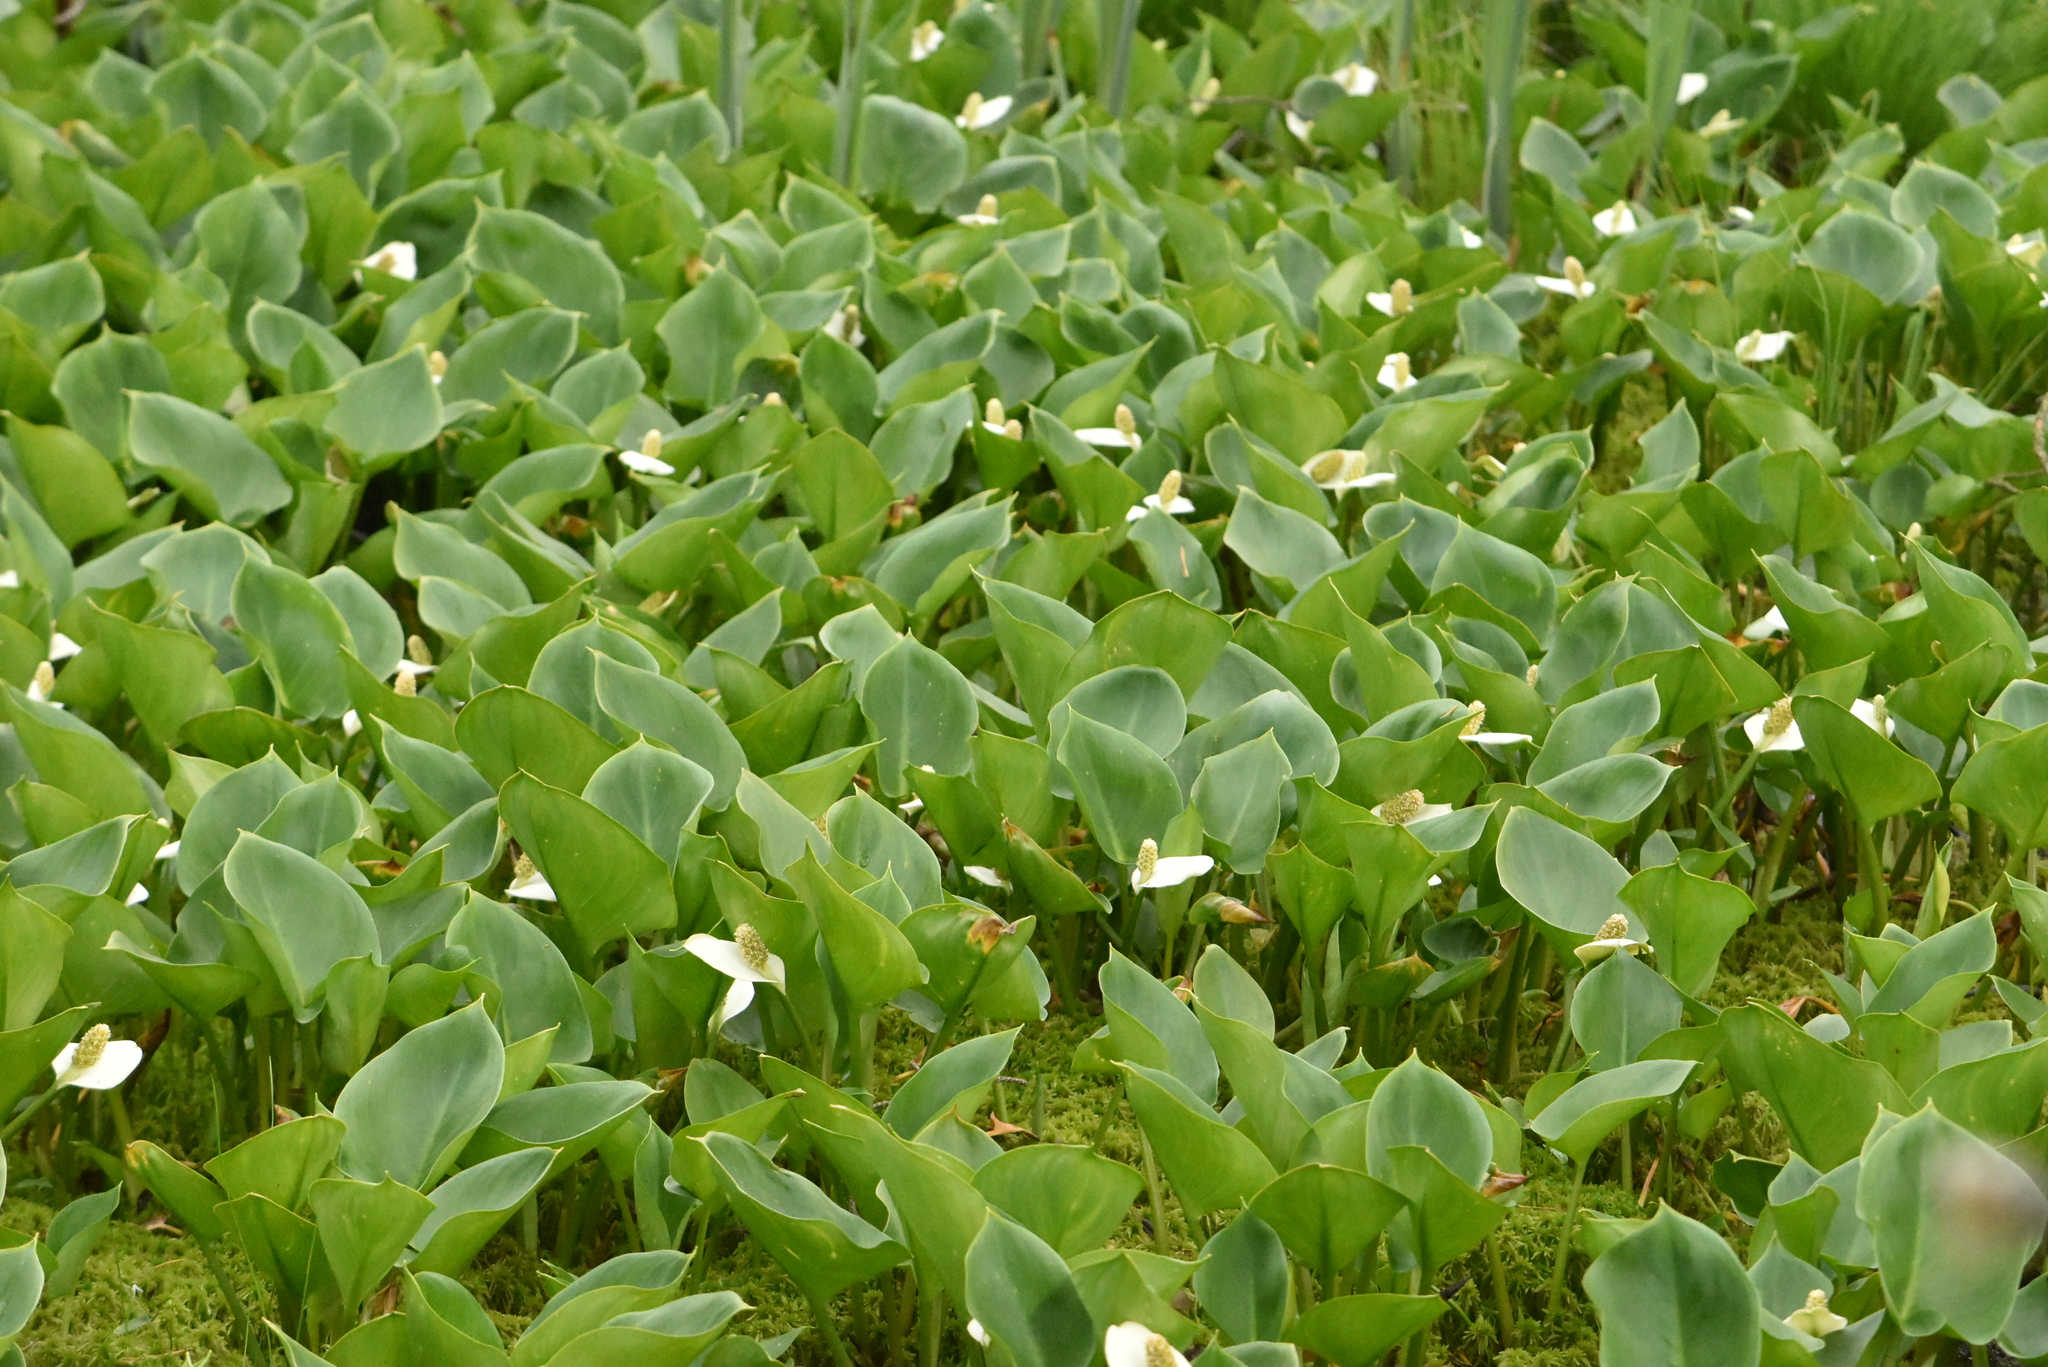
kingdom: Plantae
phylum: Tracheophyta
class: Liliopsida
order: Alismatales
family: Araceae
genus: Calla
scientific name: Calla palustris
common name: Bog arum
